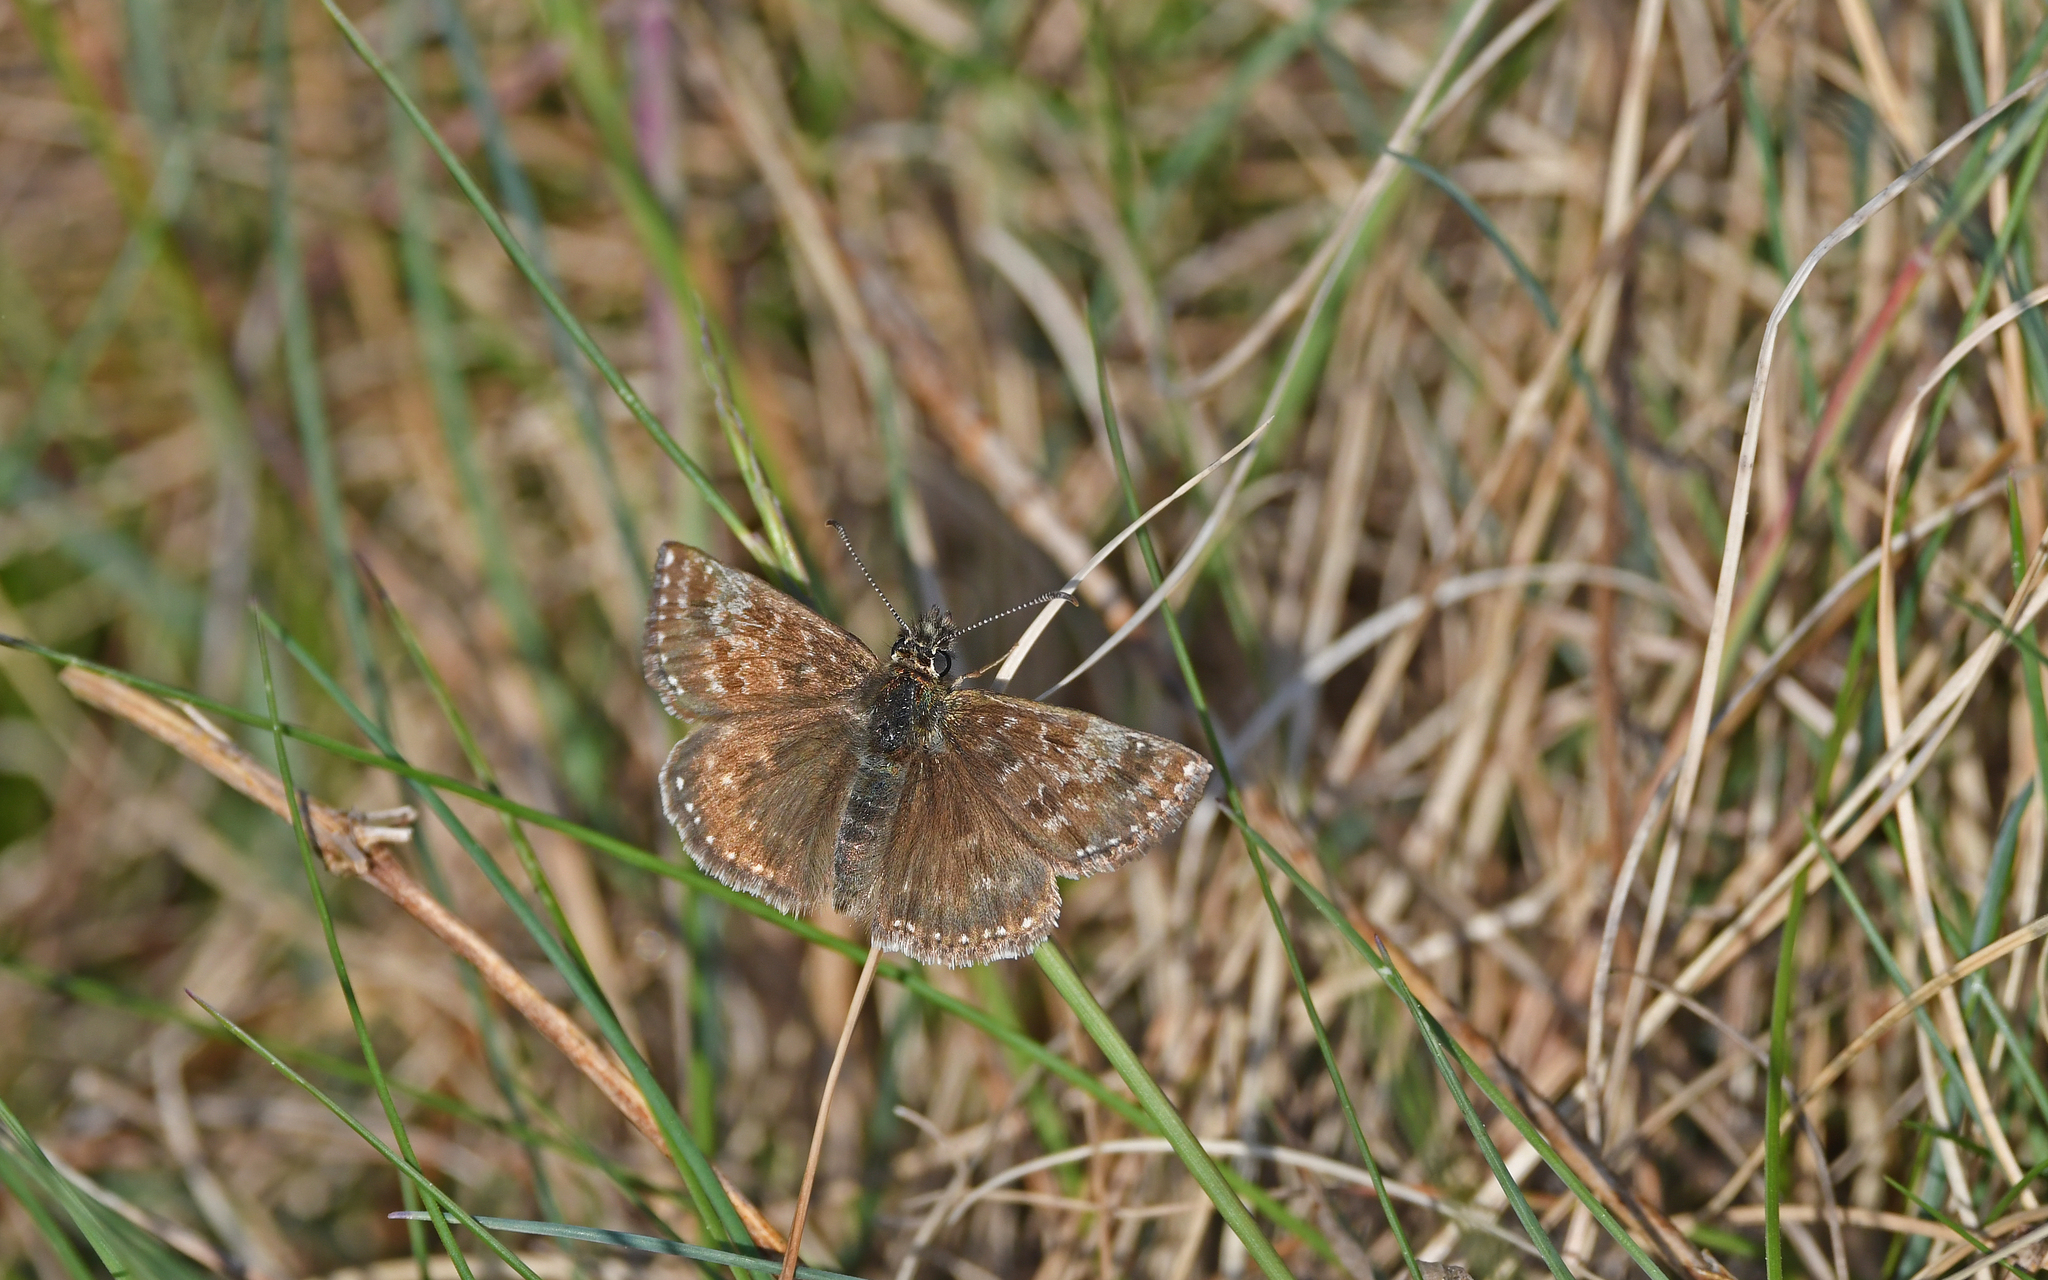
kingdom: Animalia
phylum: Arthropoda
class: Insecta
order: Lepidoptera
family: Hesperiidae
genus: Erynnis
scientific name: Erynnis tages
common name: Dingy skipper
